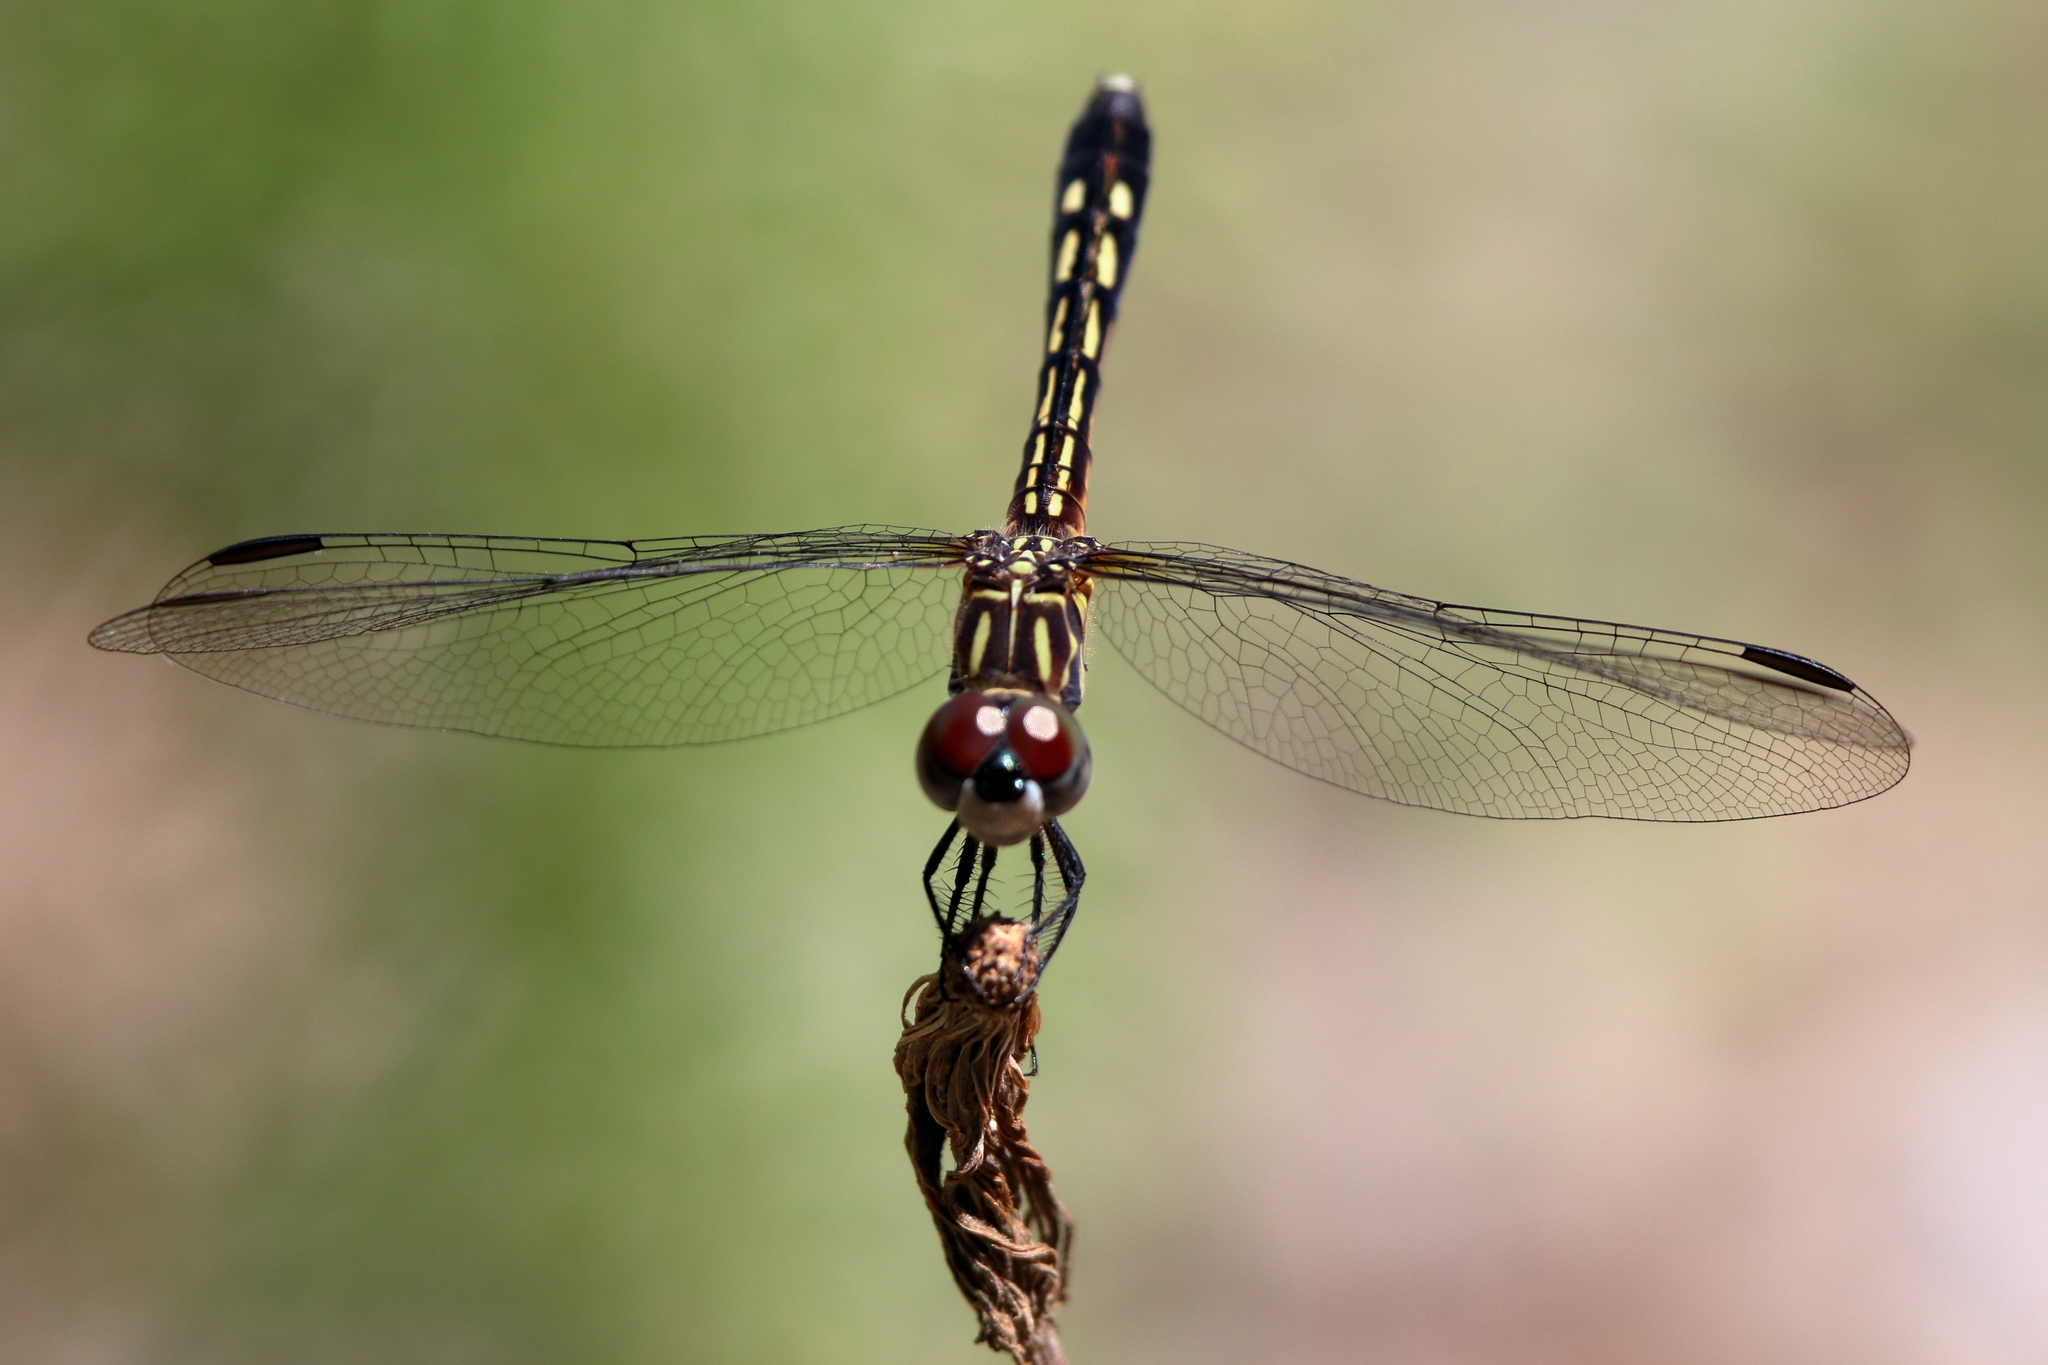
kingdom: Animalia
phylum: Arthropoda
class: Insecta
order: Odonata
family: Libellulidae
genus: Pachydiplax
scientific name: Pachydiplax longipennis
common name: Blue dasher
